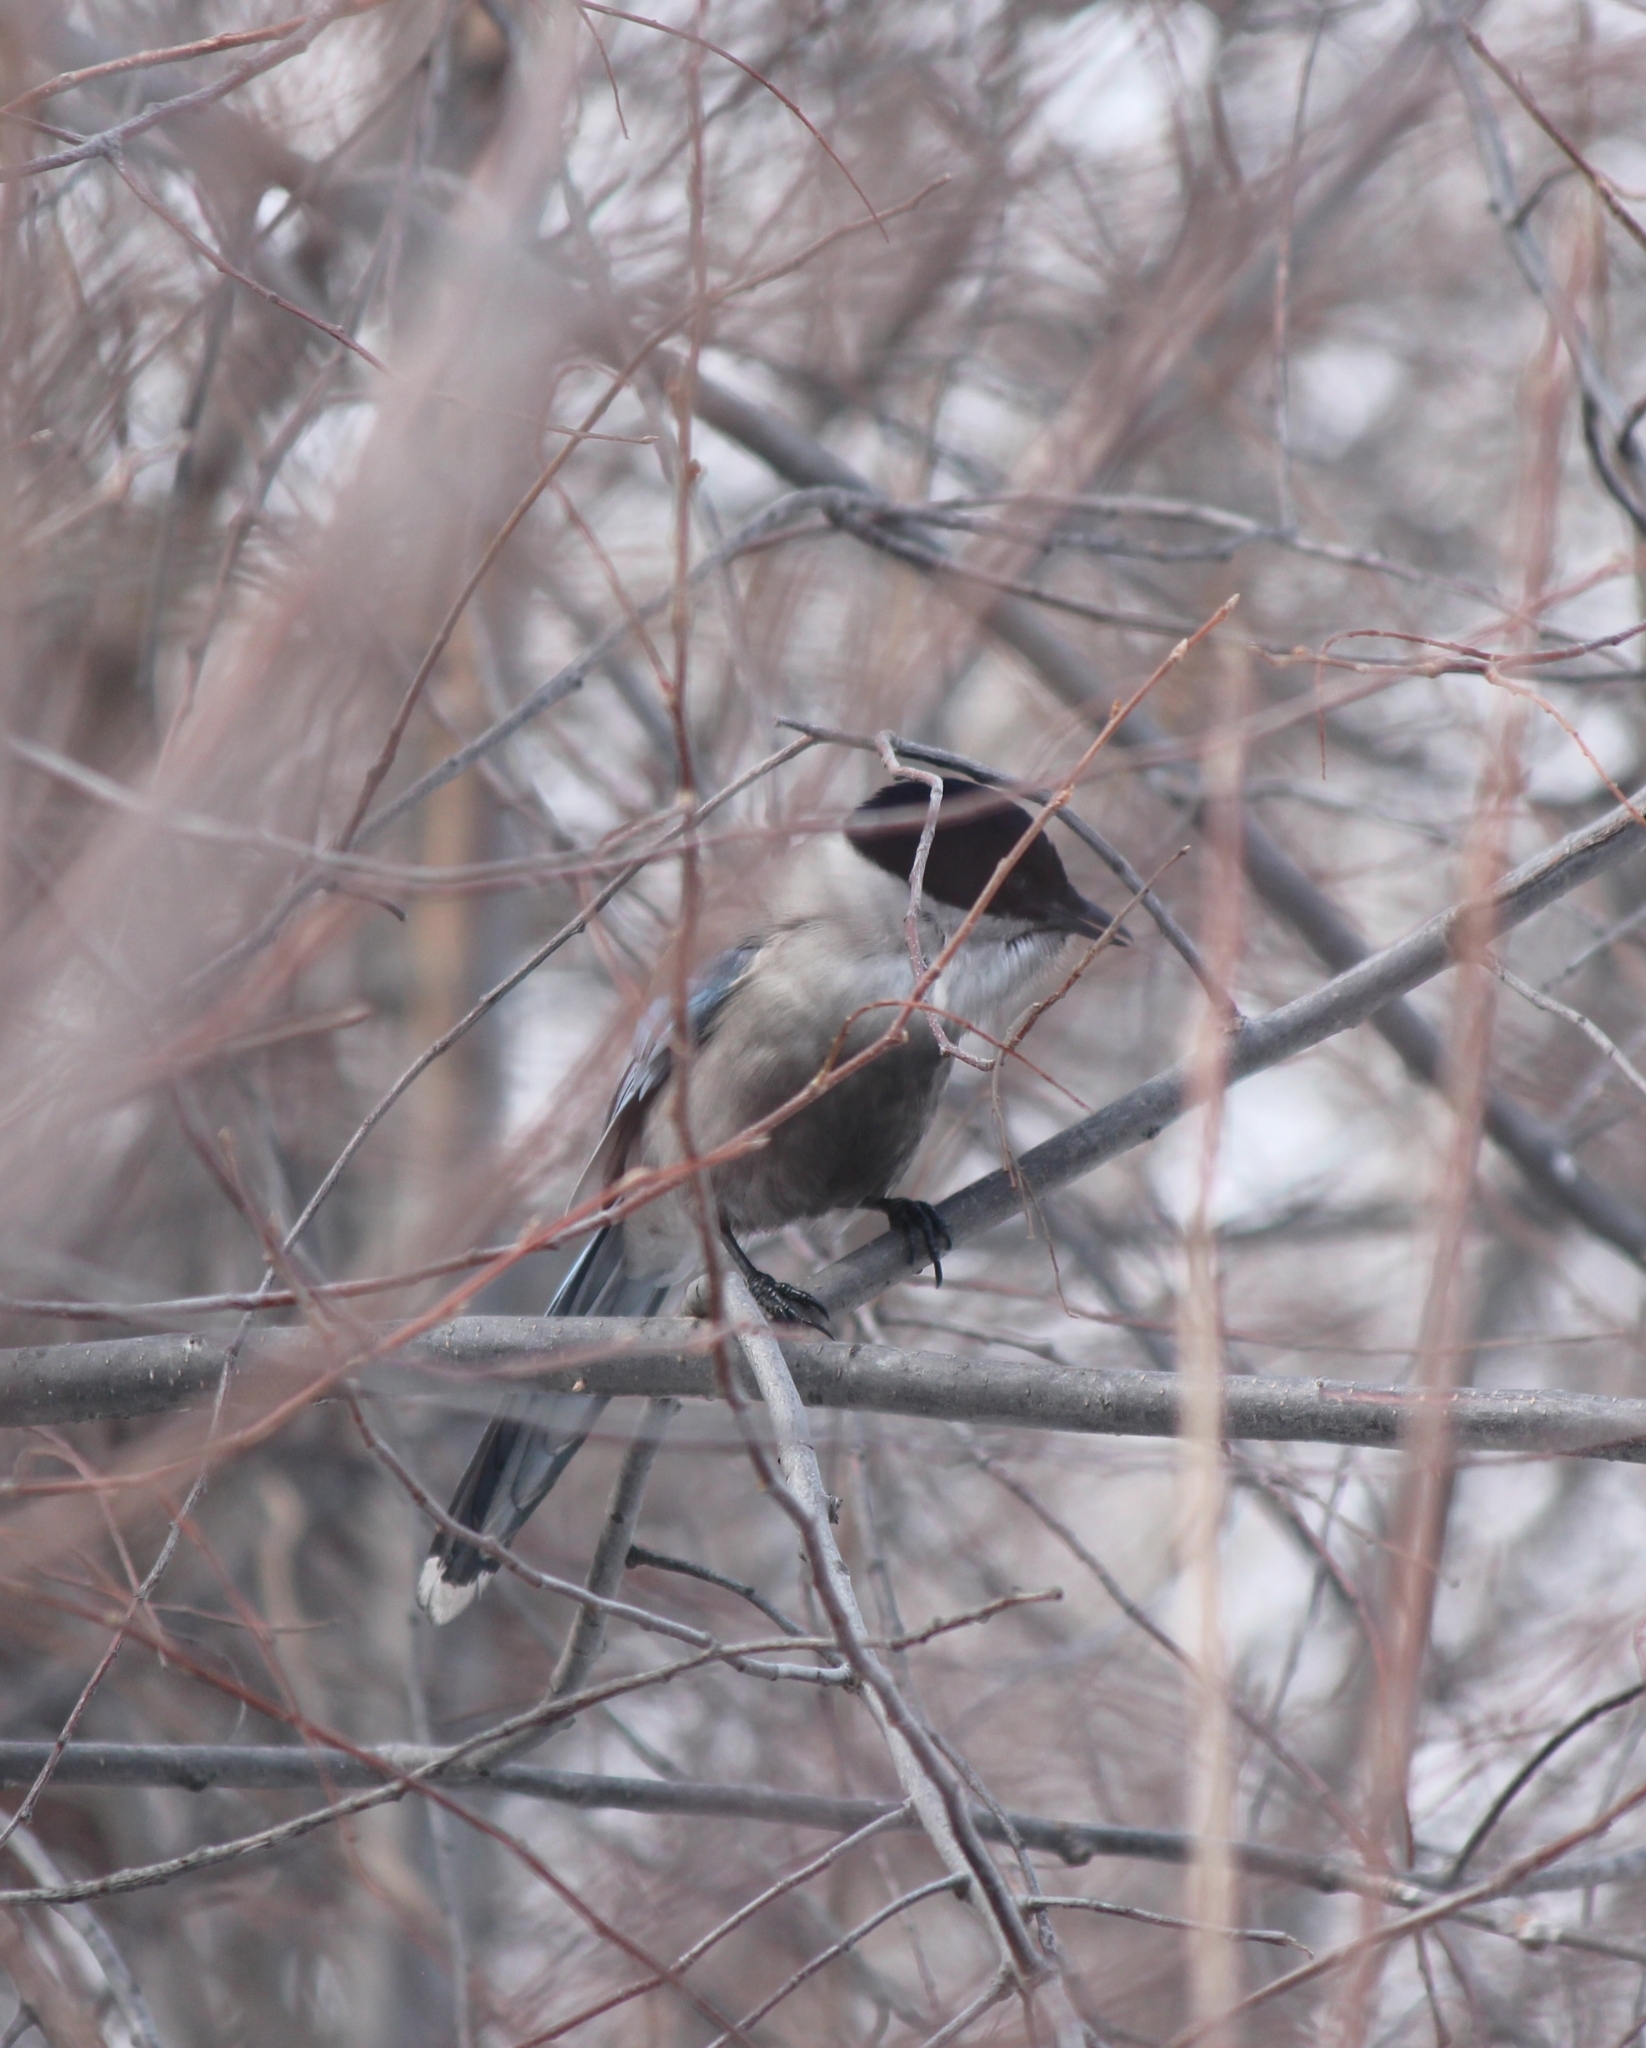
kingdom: Animalia
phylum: Chordata
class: Aves
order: Passeriformes
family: Corvidae
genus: Cyanopica
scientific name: Cyanopica cyanus
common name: Azure-winged magpie
